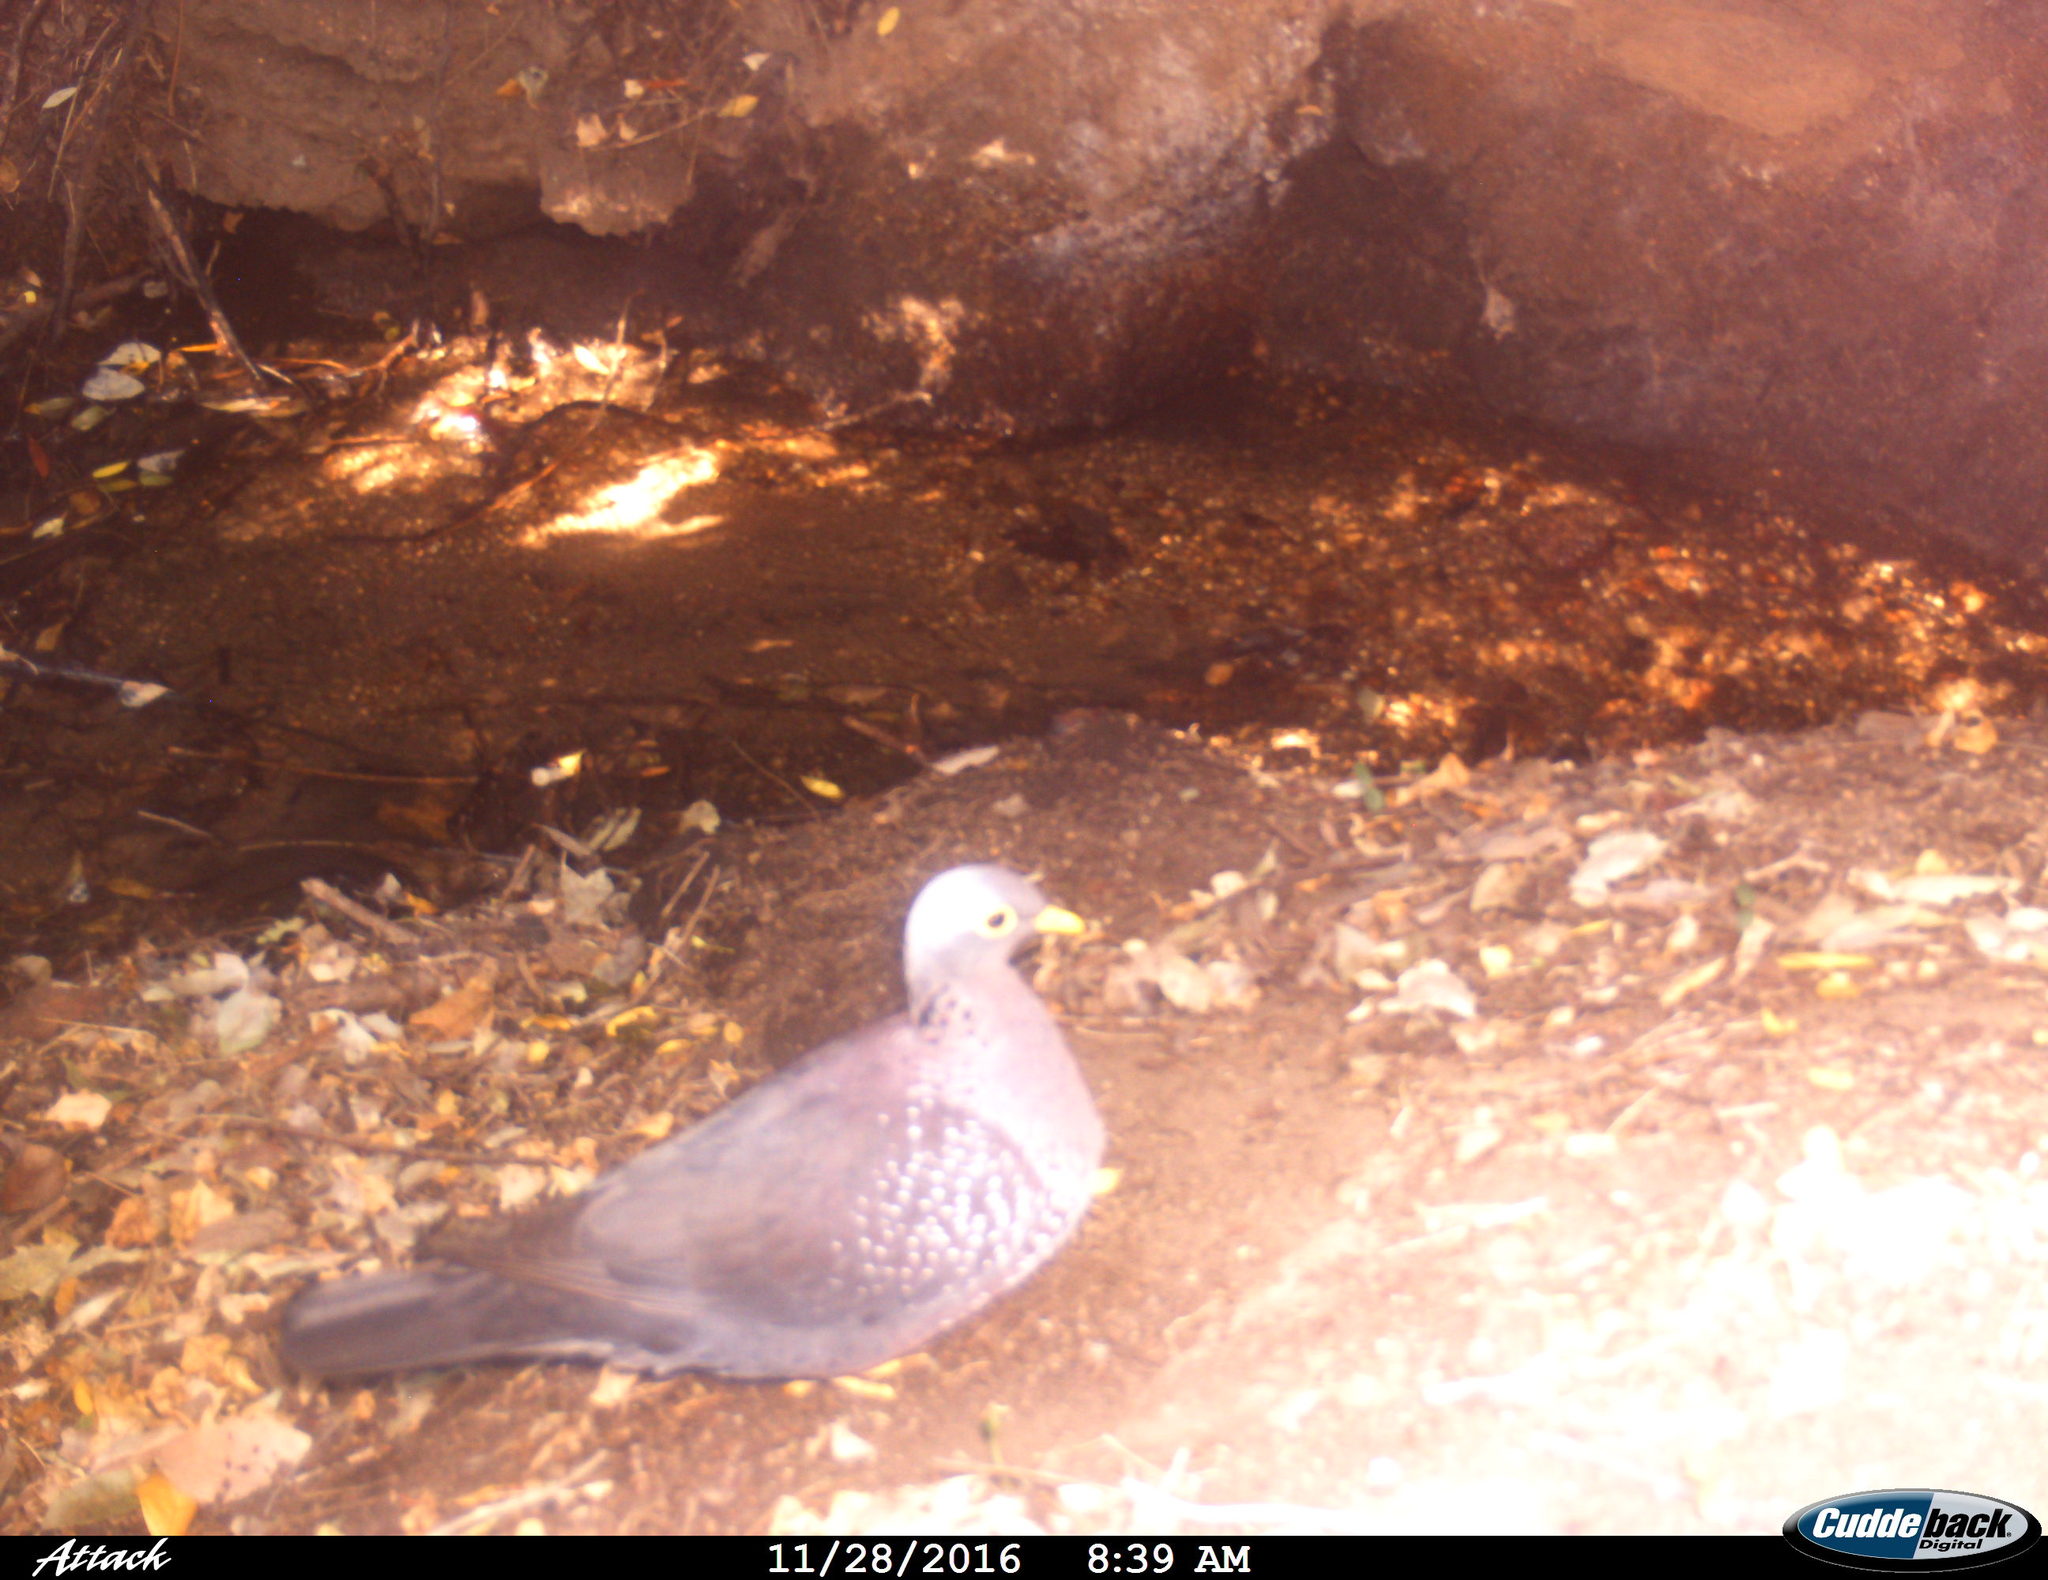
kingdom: Animalia
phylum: Chordata
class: Aves
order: Columbiformes
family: Columbidae
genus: Columba
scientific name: Columba arquatrix
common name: African olive pigeon
